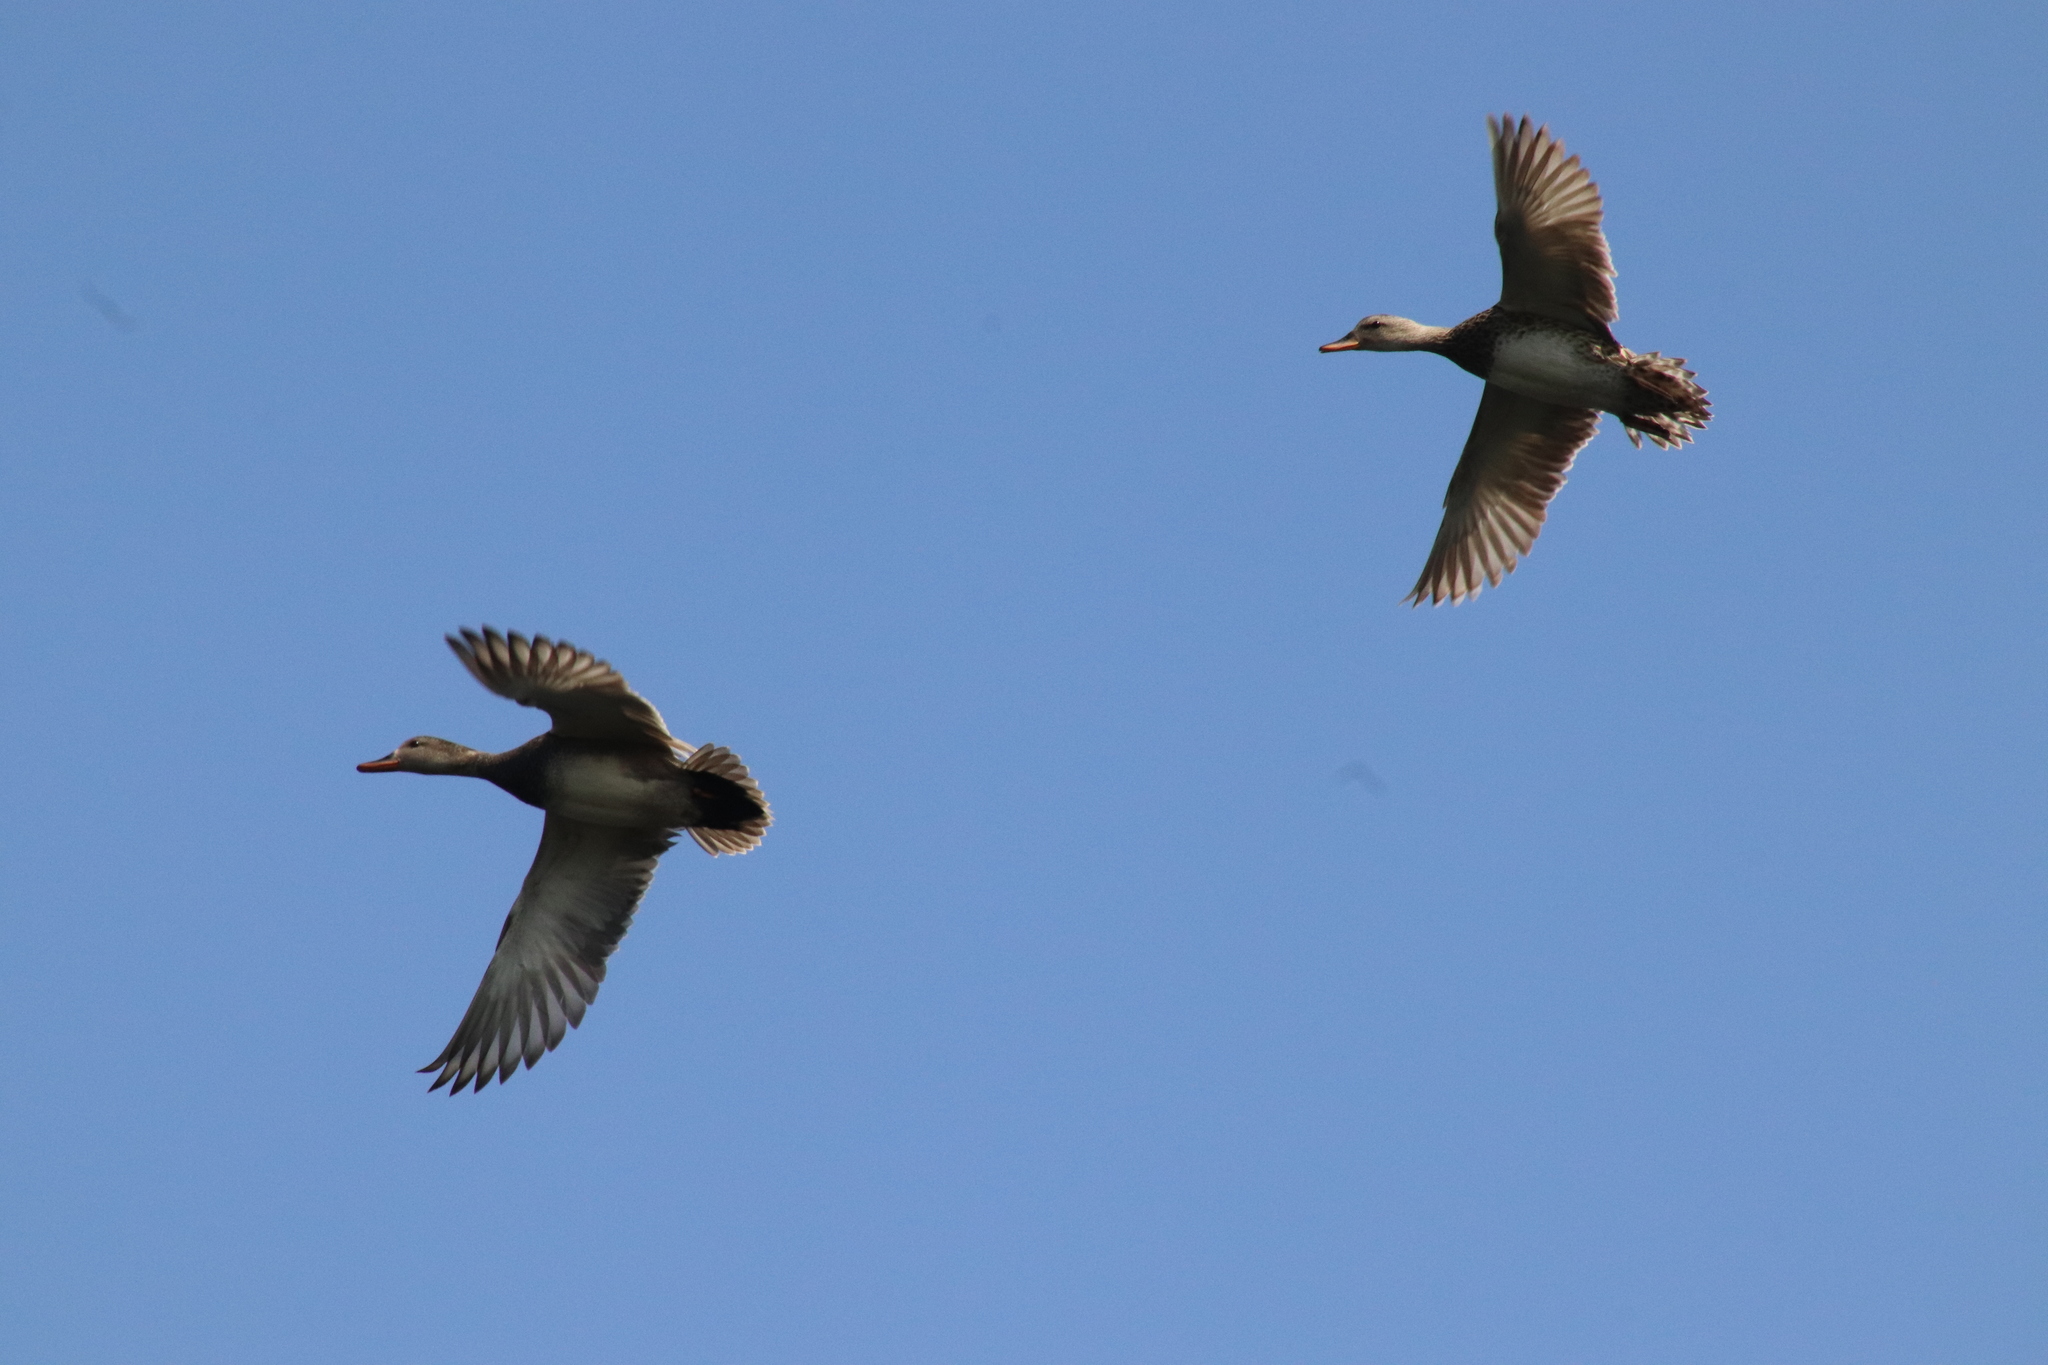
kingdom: Animalia
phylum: Chordata
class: Aves
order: Anseriformes
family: Anatidae
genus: Mareca
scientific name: Mareca strepera
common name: Gadwall
